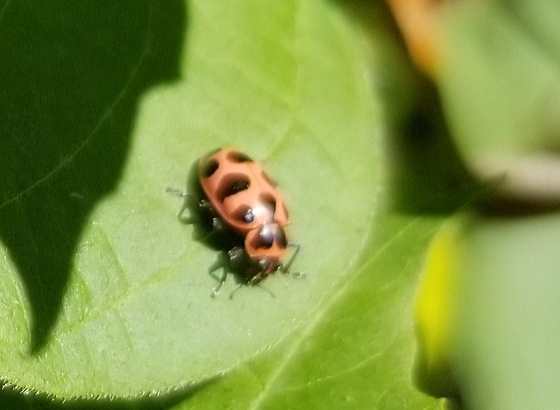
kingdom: Animalia
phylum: Arthropoda
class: Insecta
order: Coleoptera
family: Coccinellidae
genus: Coleomegilla
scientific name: Coleomegilla maculata
